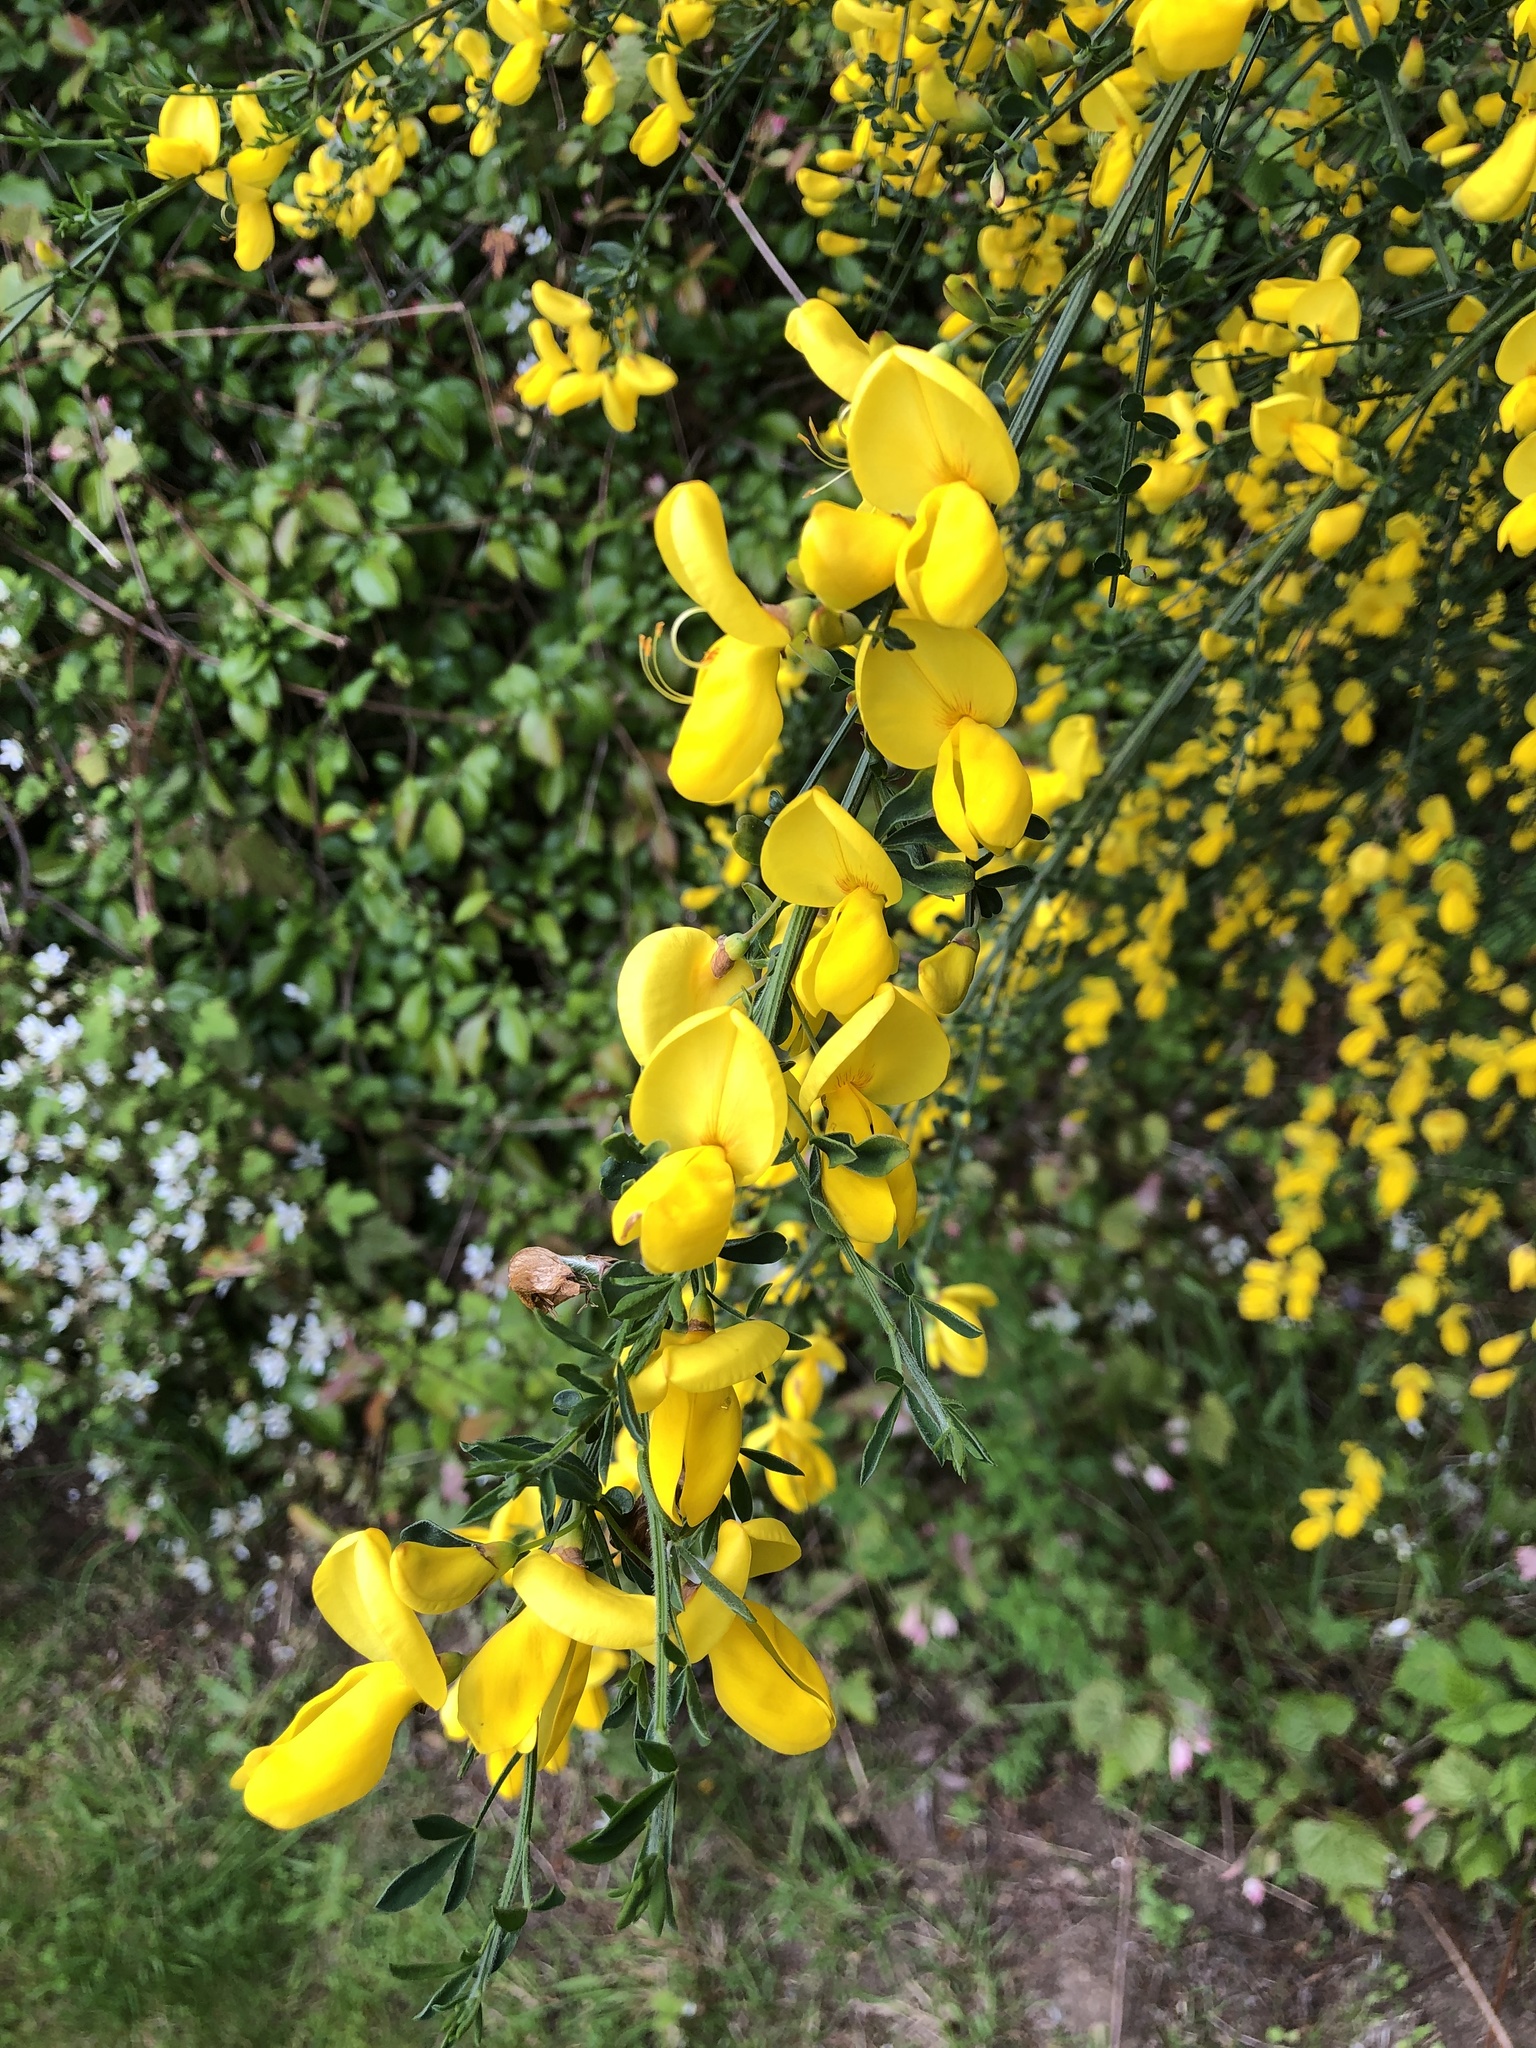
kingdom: Plantae
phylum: Tracheophyta
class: Magnoliopsida
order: Fabales
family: Fabaceae
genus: Cytisus
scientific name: Cytisus scoparius
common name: Scotch broom
